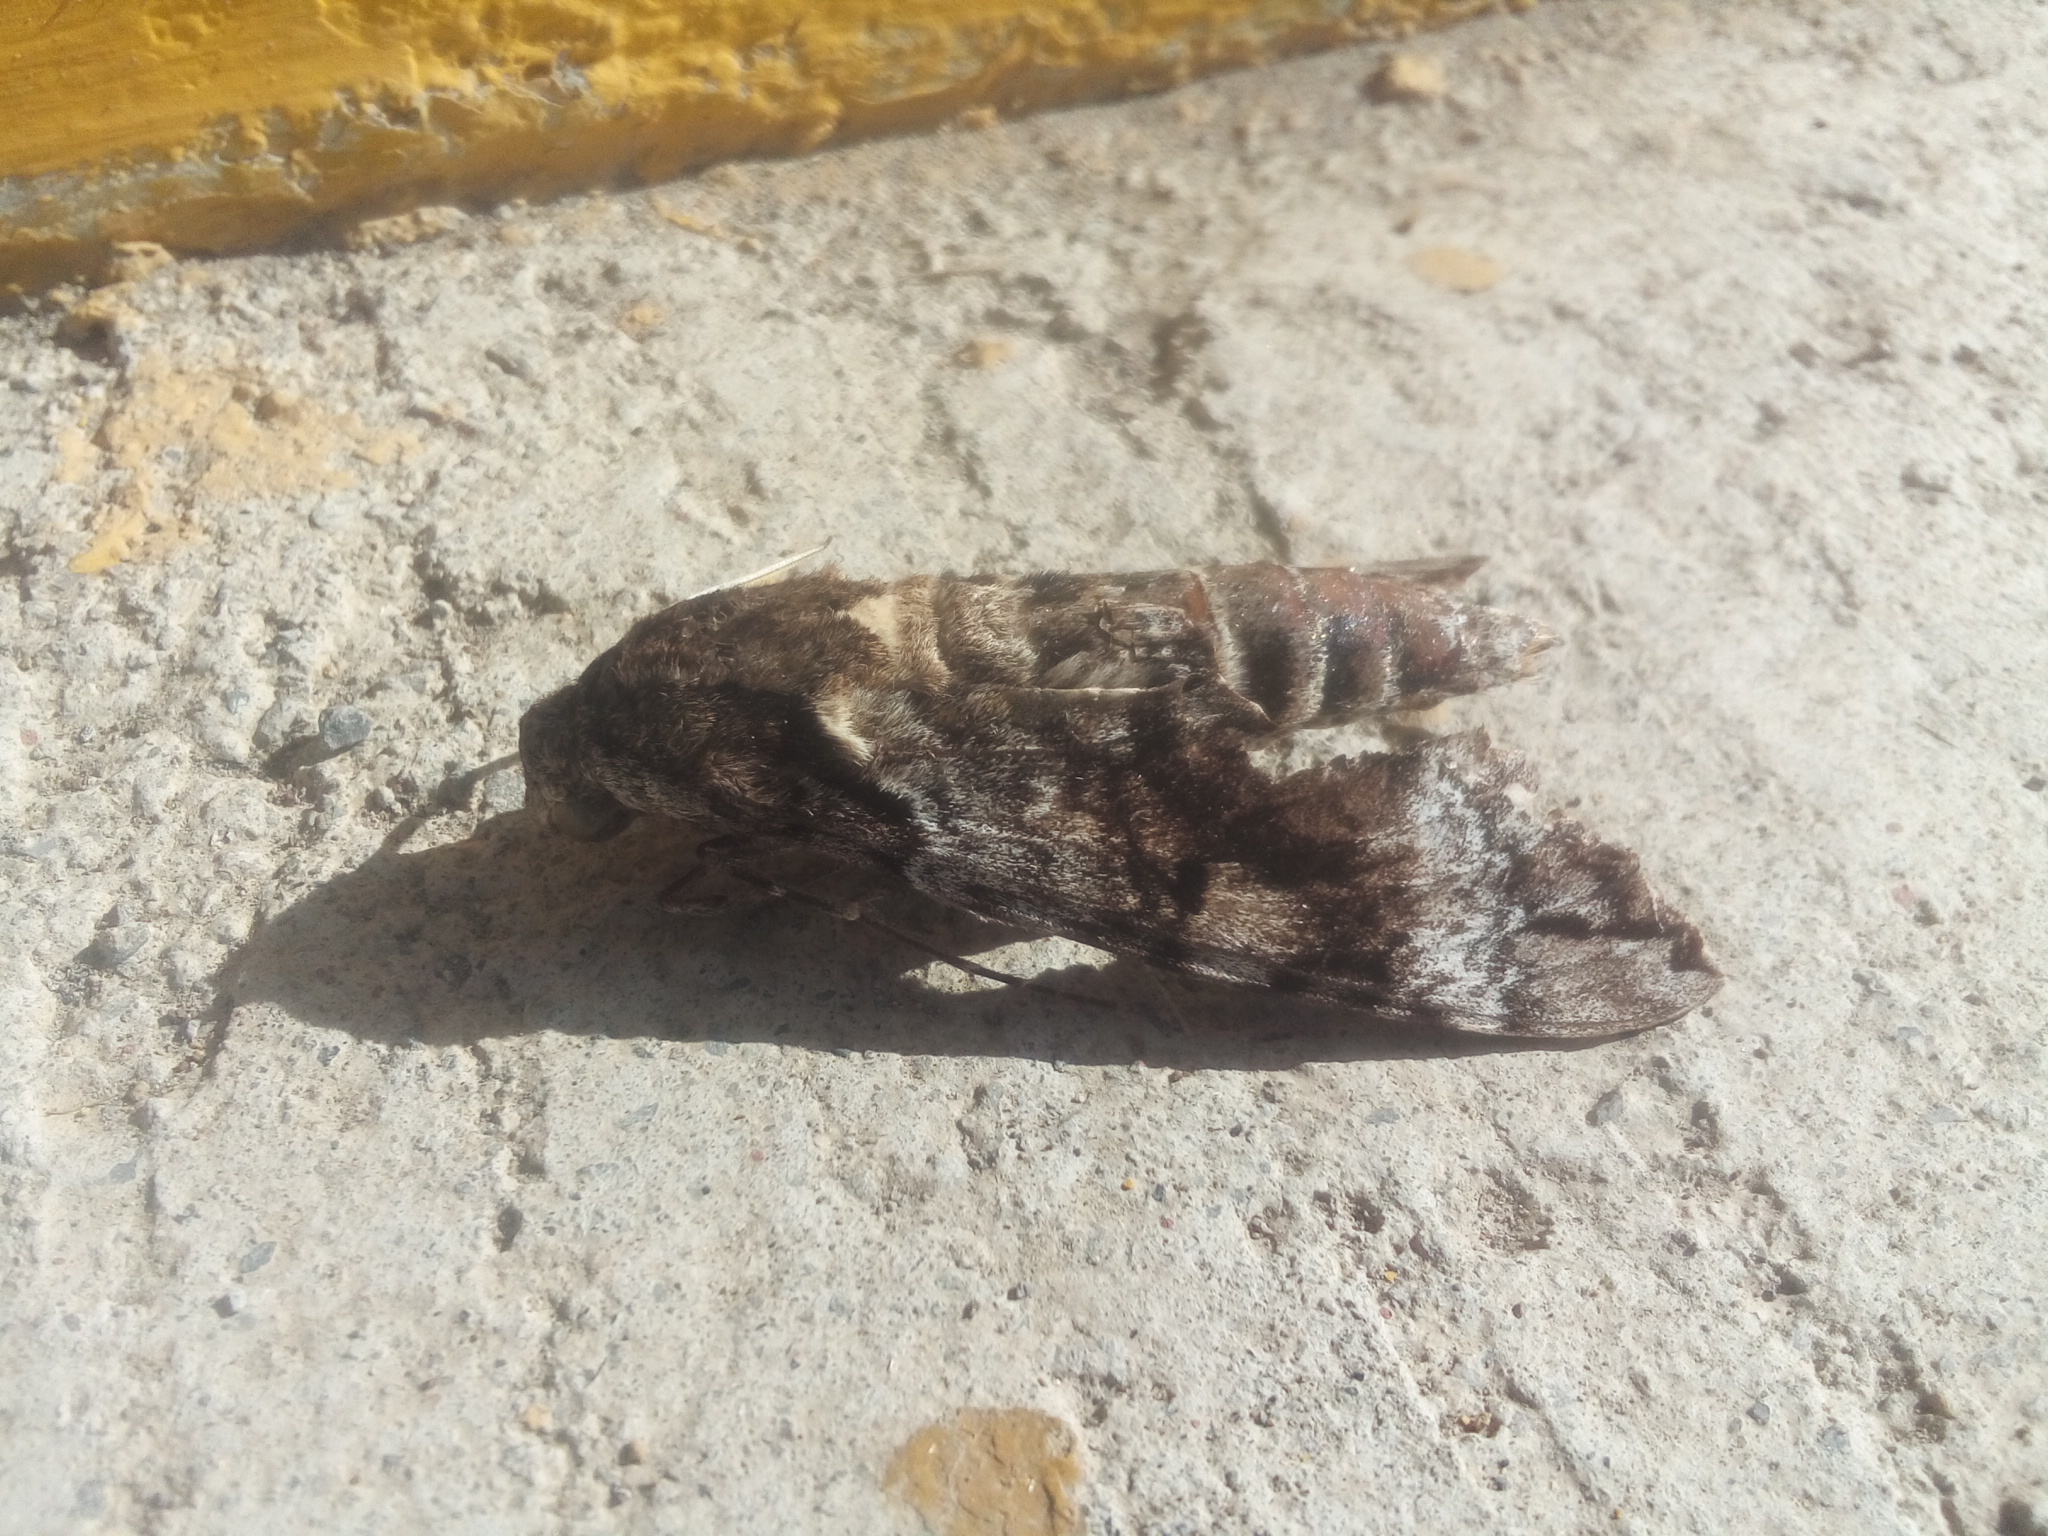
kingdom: Animalia
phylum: Arthropoda
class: Insecta
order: Lepidoptera
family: Sphingidae
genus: Pseudosphinx
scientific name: Pseudosphinx tetrio
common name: Tetrio sphinx
